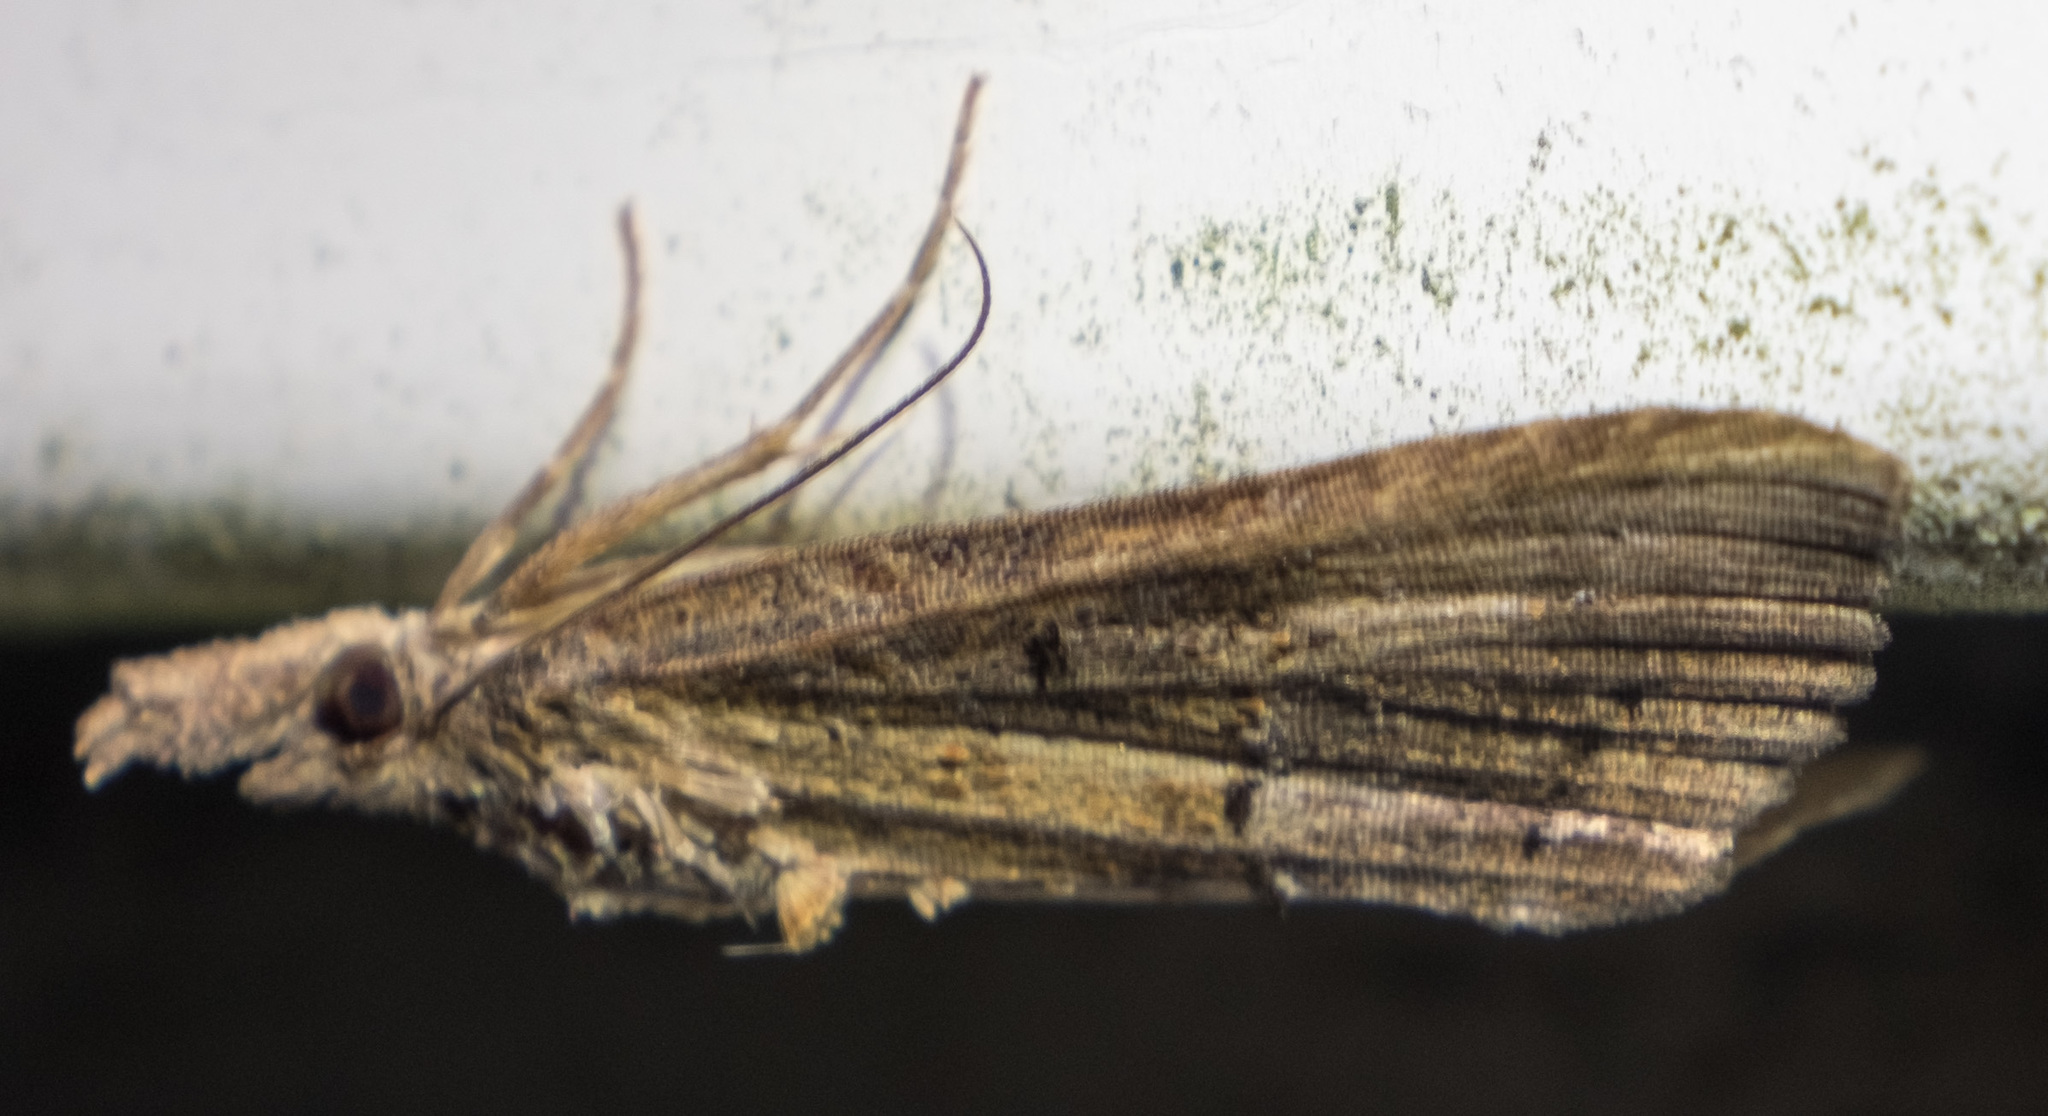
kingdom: Animalia
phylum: Arthropoda
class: Insecta
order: Lepidoptera
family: Erebidae
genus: Hypena
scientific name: Hypena scabra
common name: Green cloverworm
